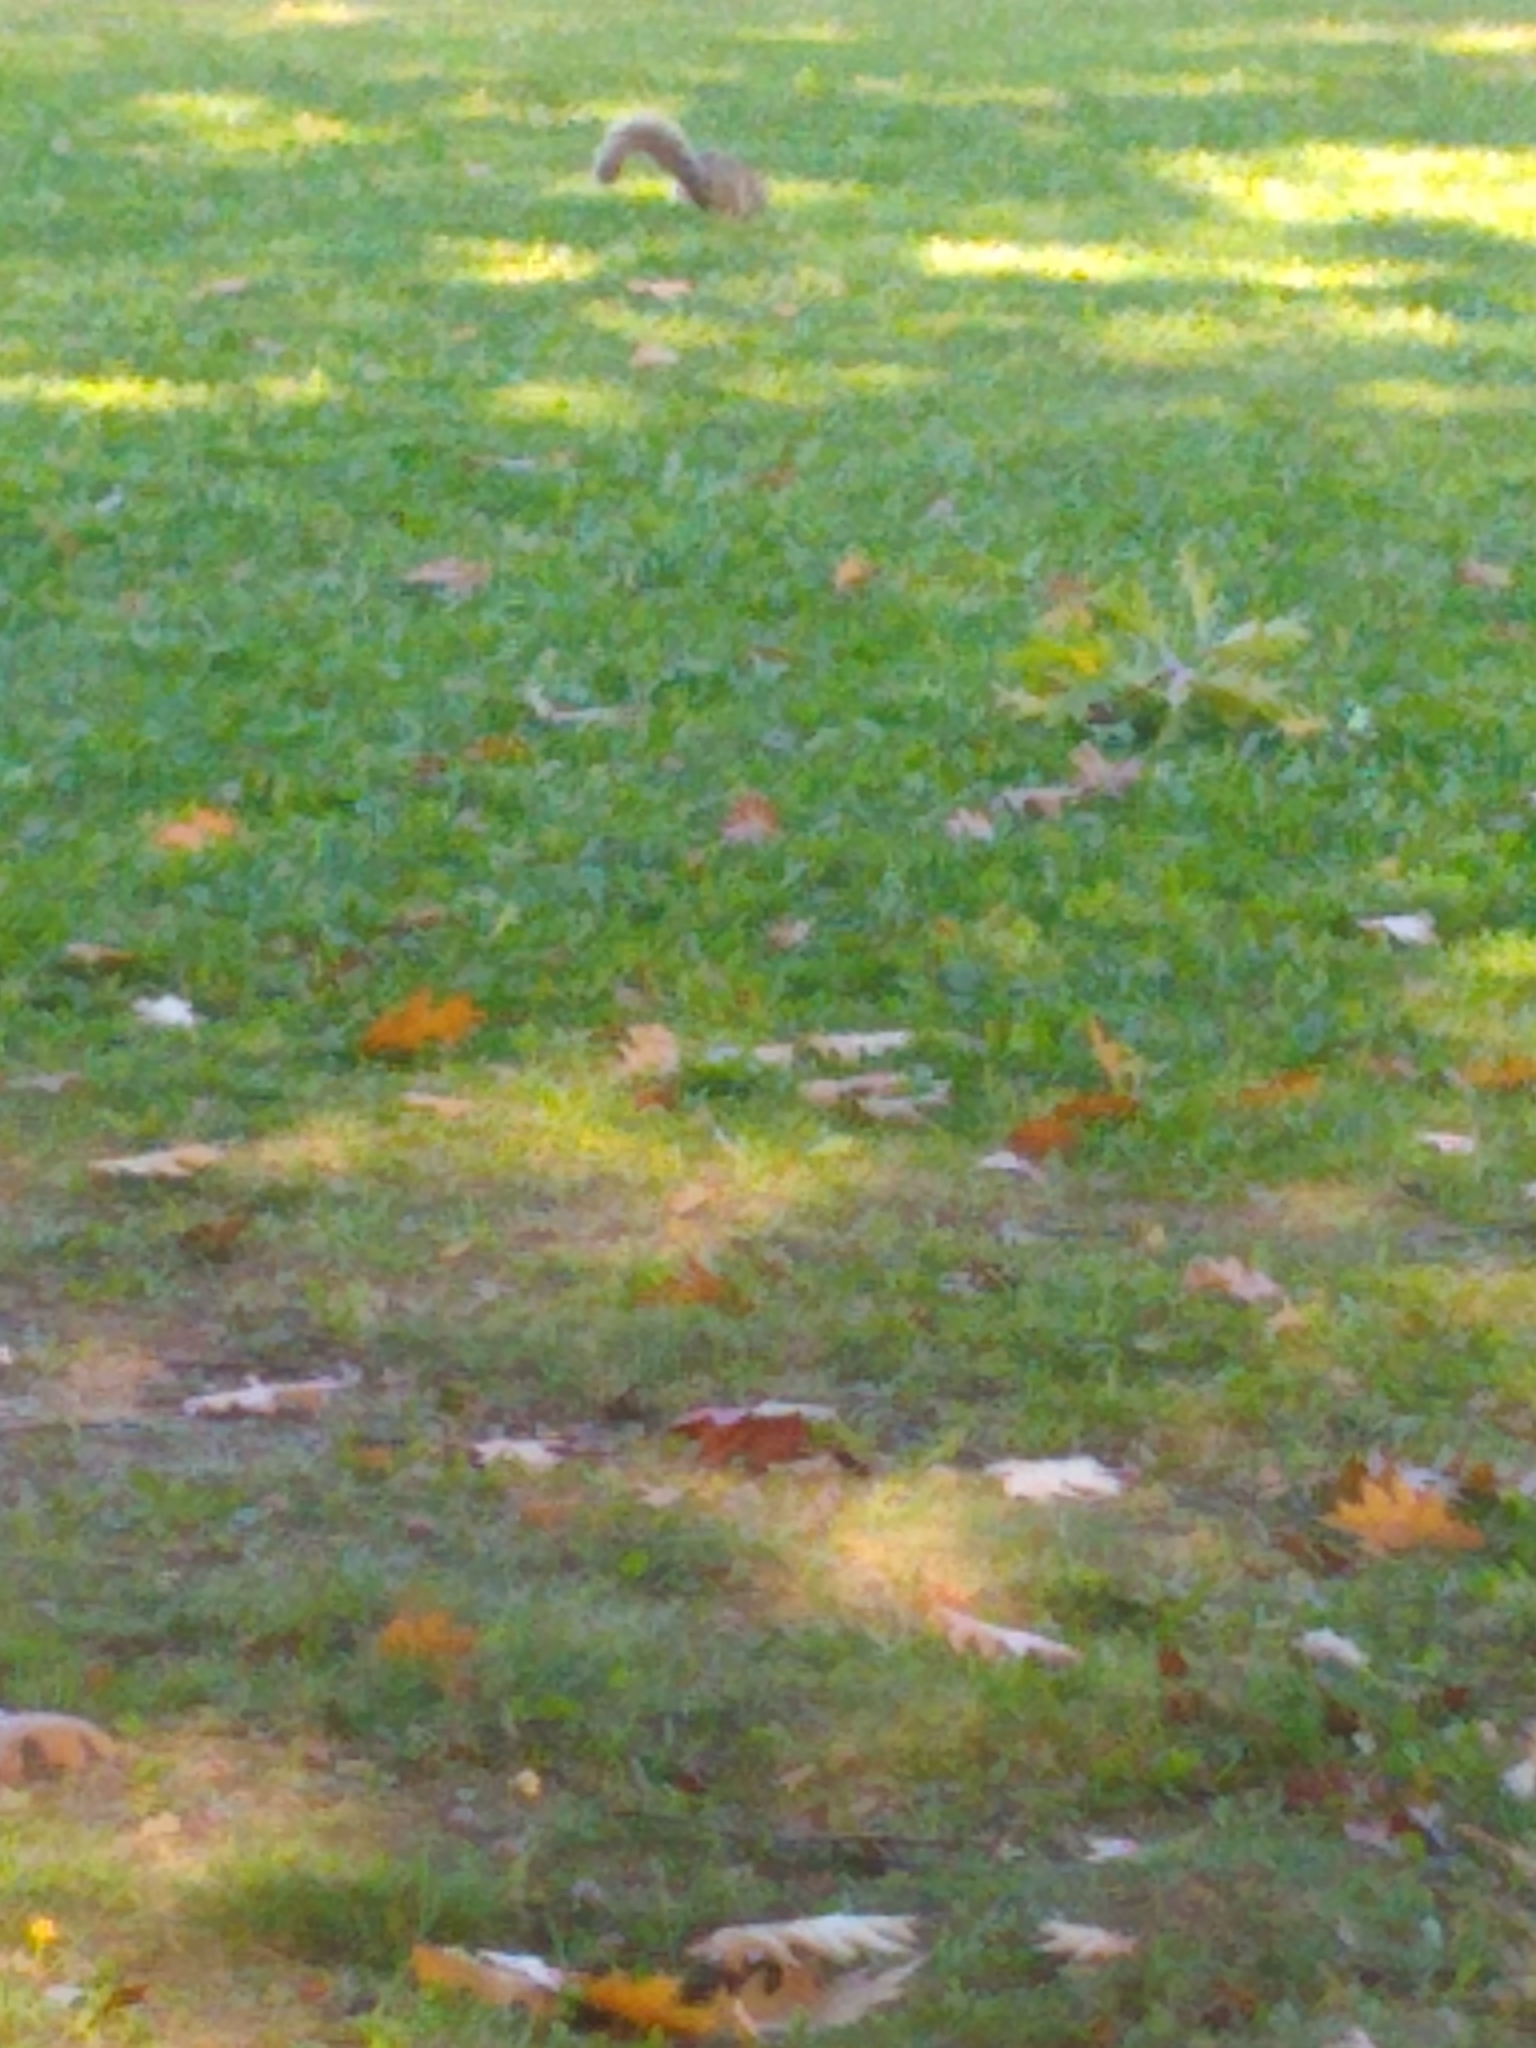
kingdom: Animalia
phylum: Chordata
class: Mammalia
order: Rodentia
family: Sciuridae
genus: Sciurus
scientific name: Sciurus carolinensis
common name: Eastern gray squirrel
